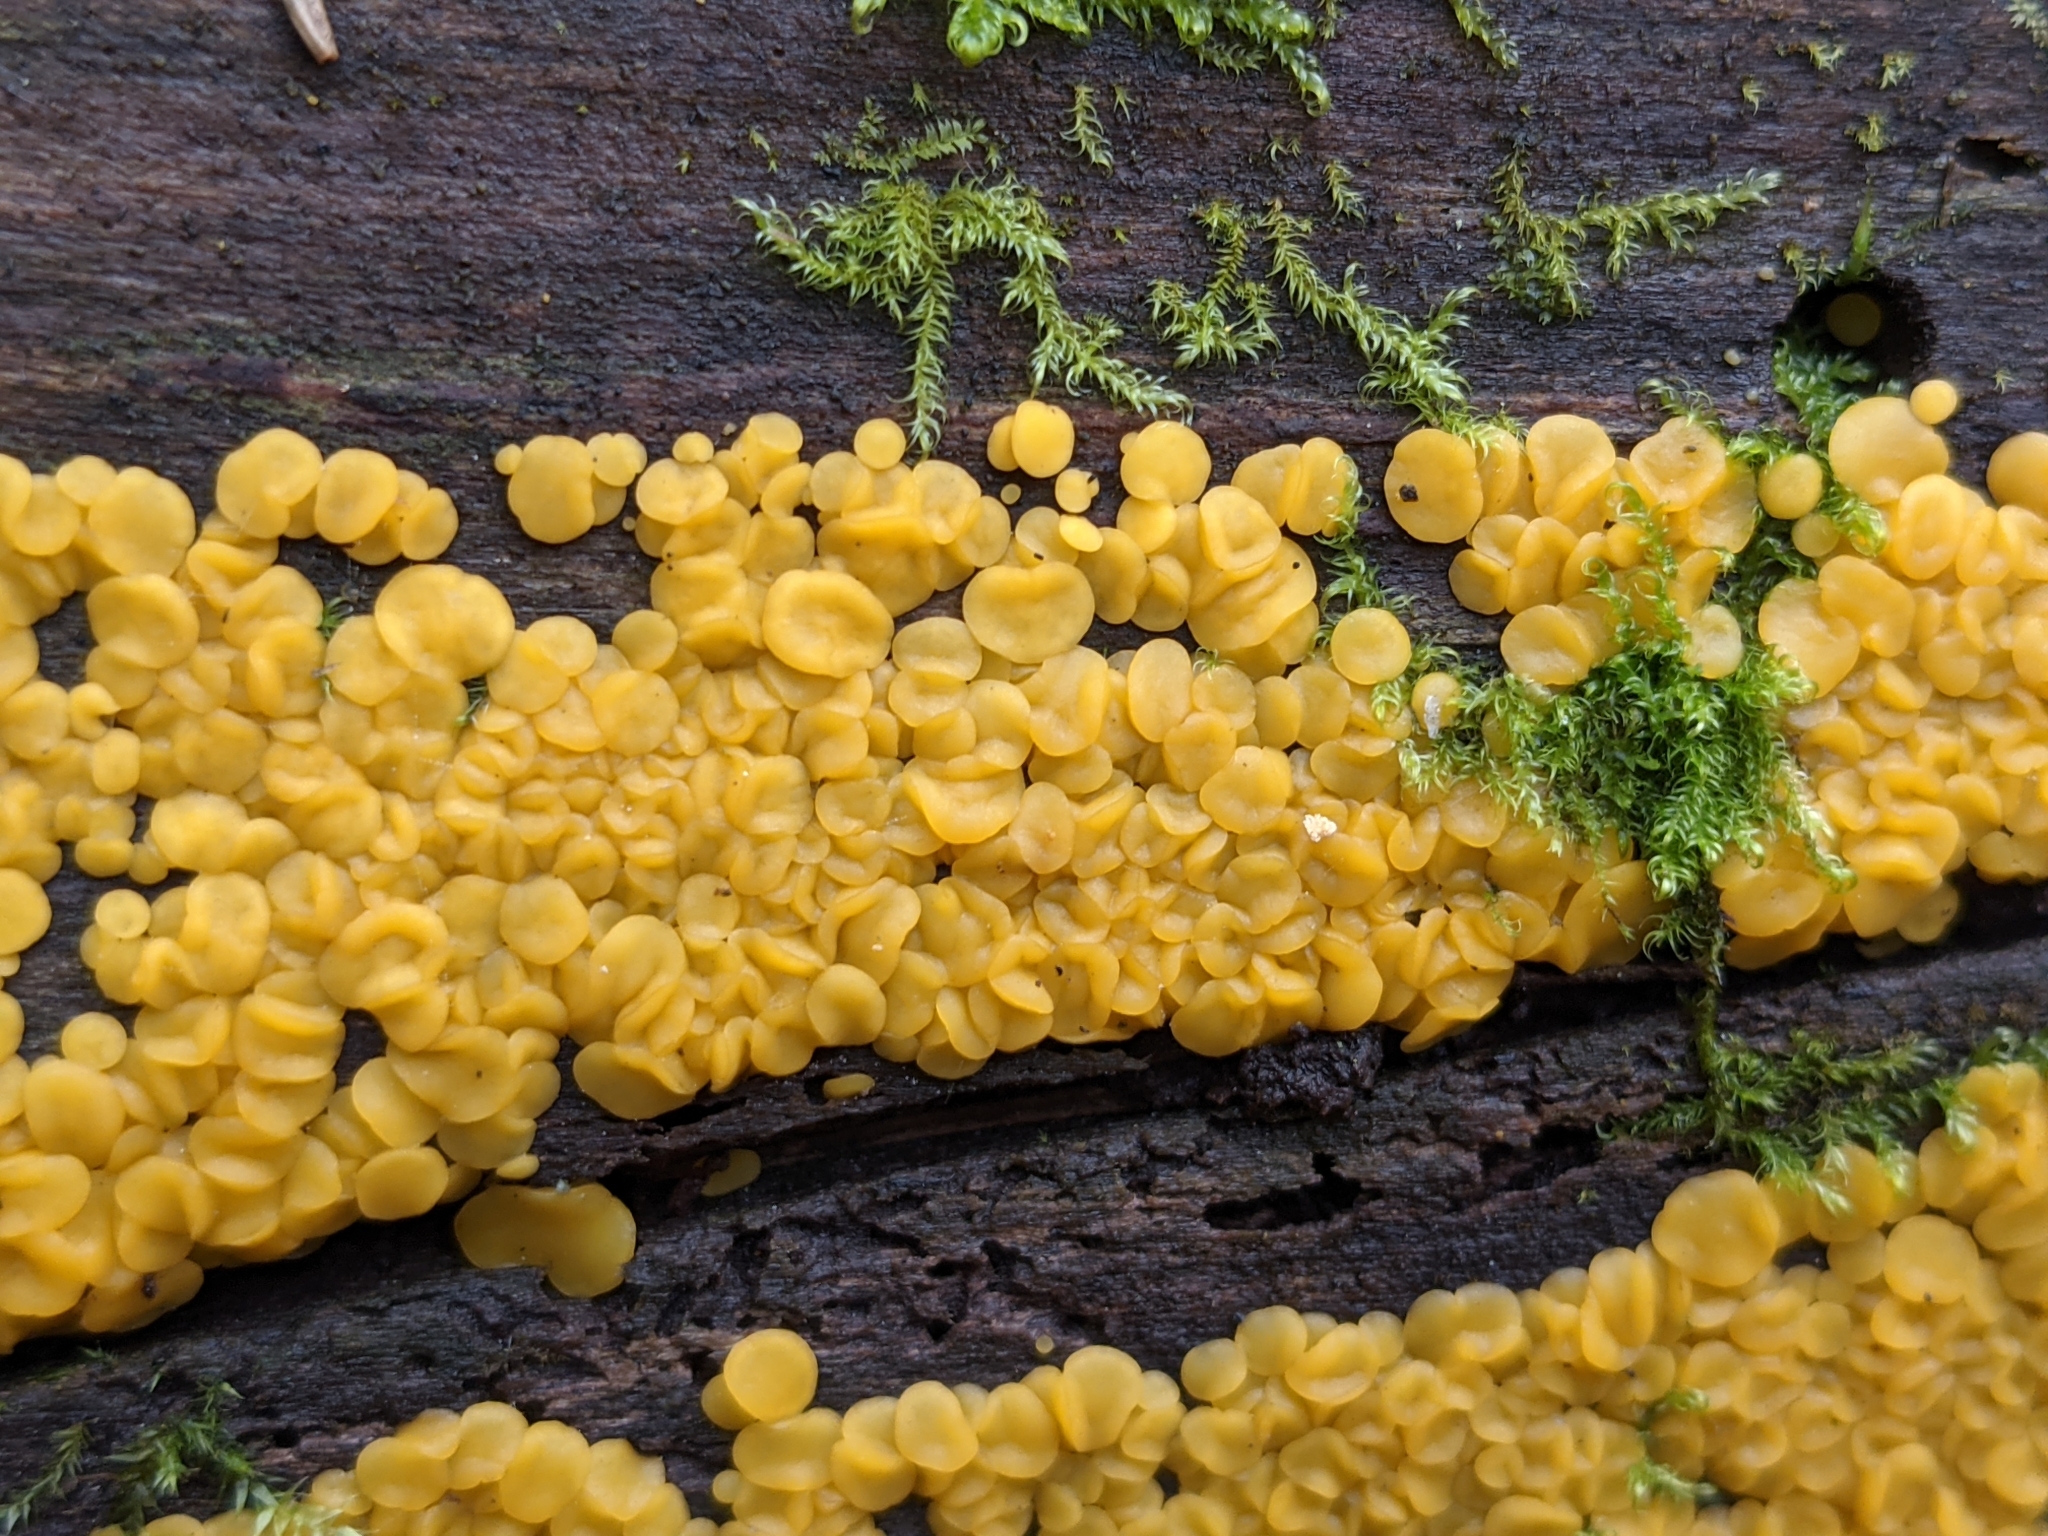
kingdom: Fungi
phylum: Ascomycota
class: Leotiomycetes
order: Helotiales
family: Pezizellaceae
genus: Calycina
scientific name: Calycina citrina
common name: Yellow fairy cups
